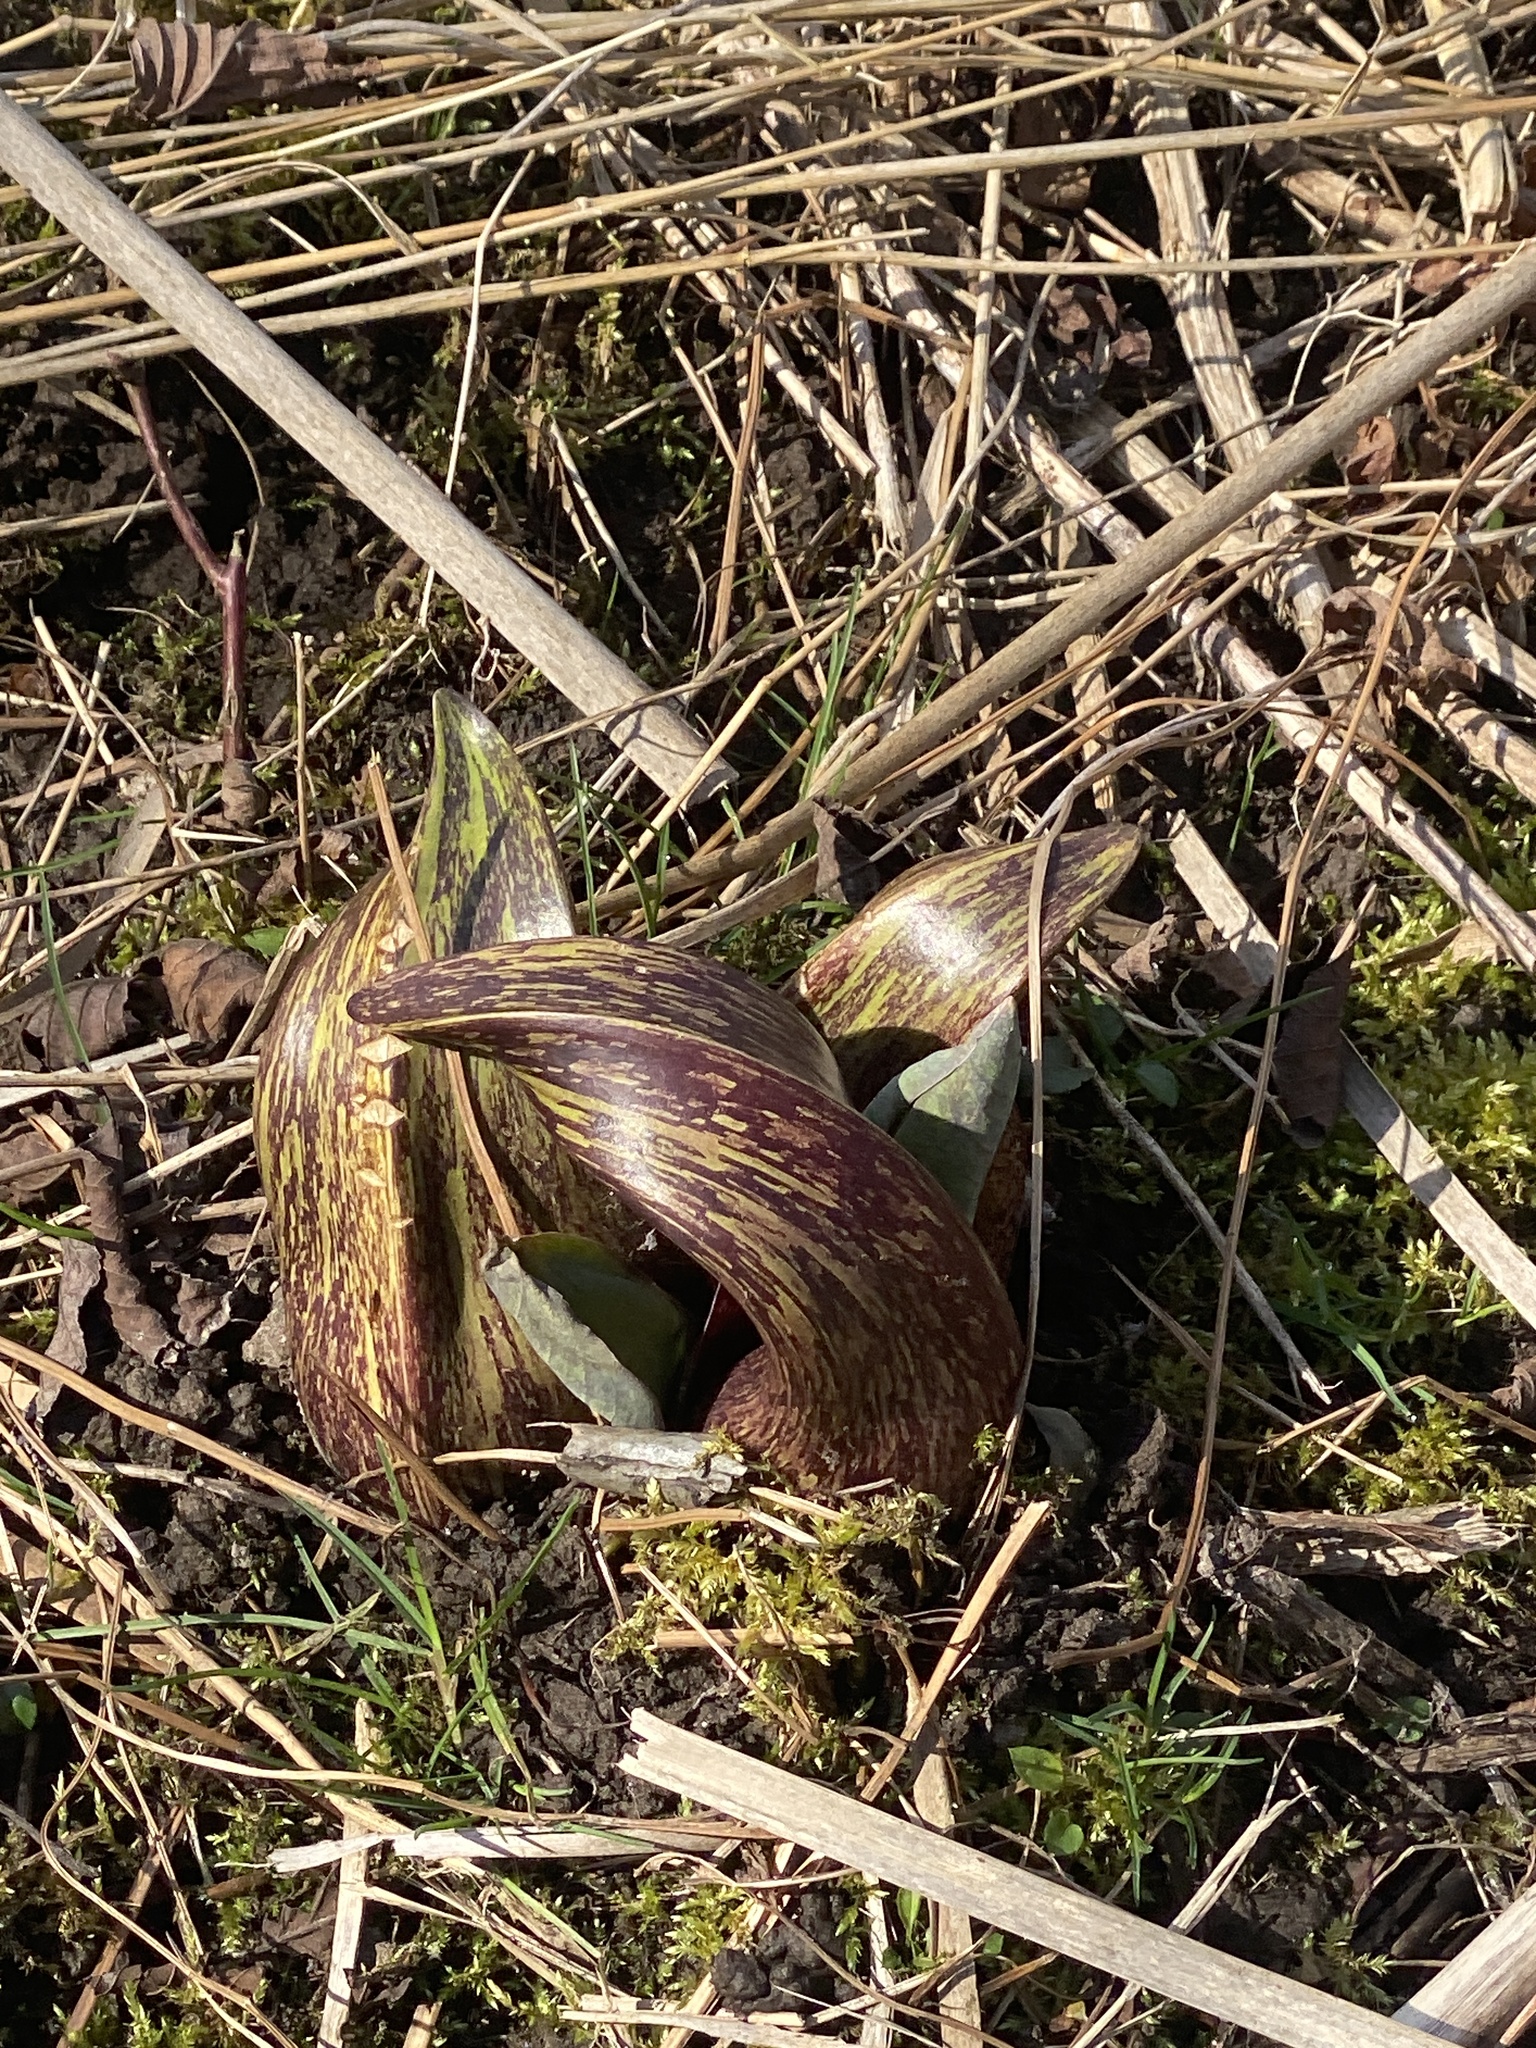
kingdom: Plantae
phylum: Tracheophyta
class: Liliopsida
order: Alismatales
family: Araceae
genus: Symplocarpus
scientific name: Symplocarpus foetidus
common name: Eastern skunk cabbage
